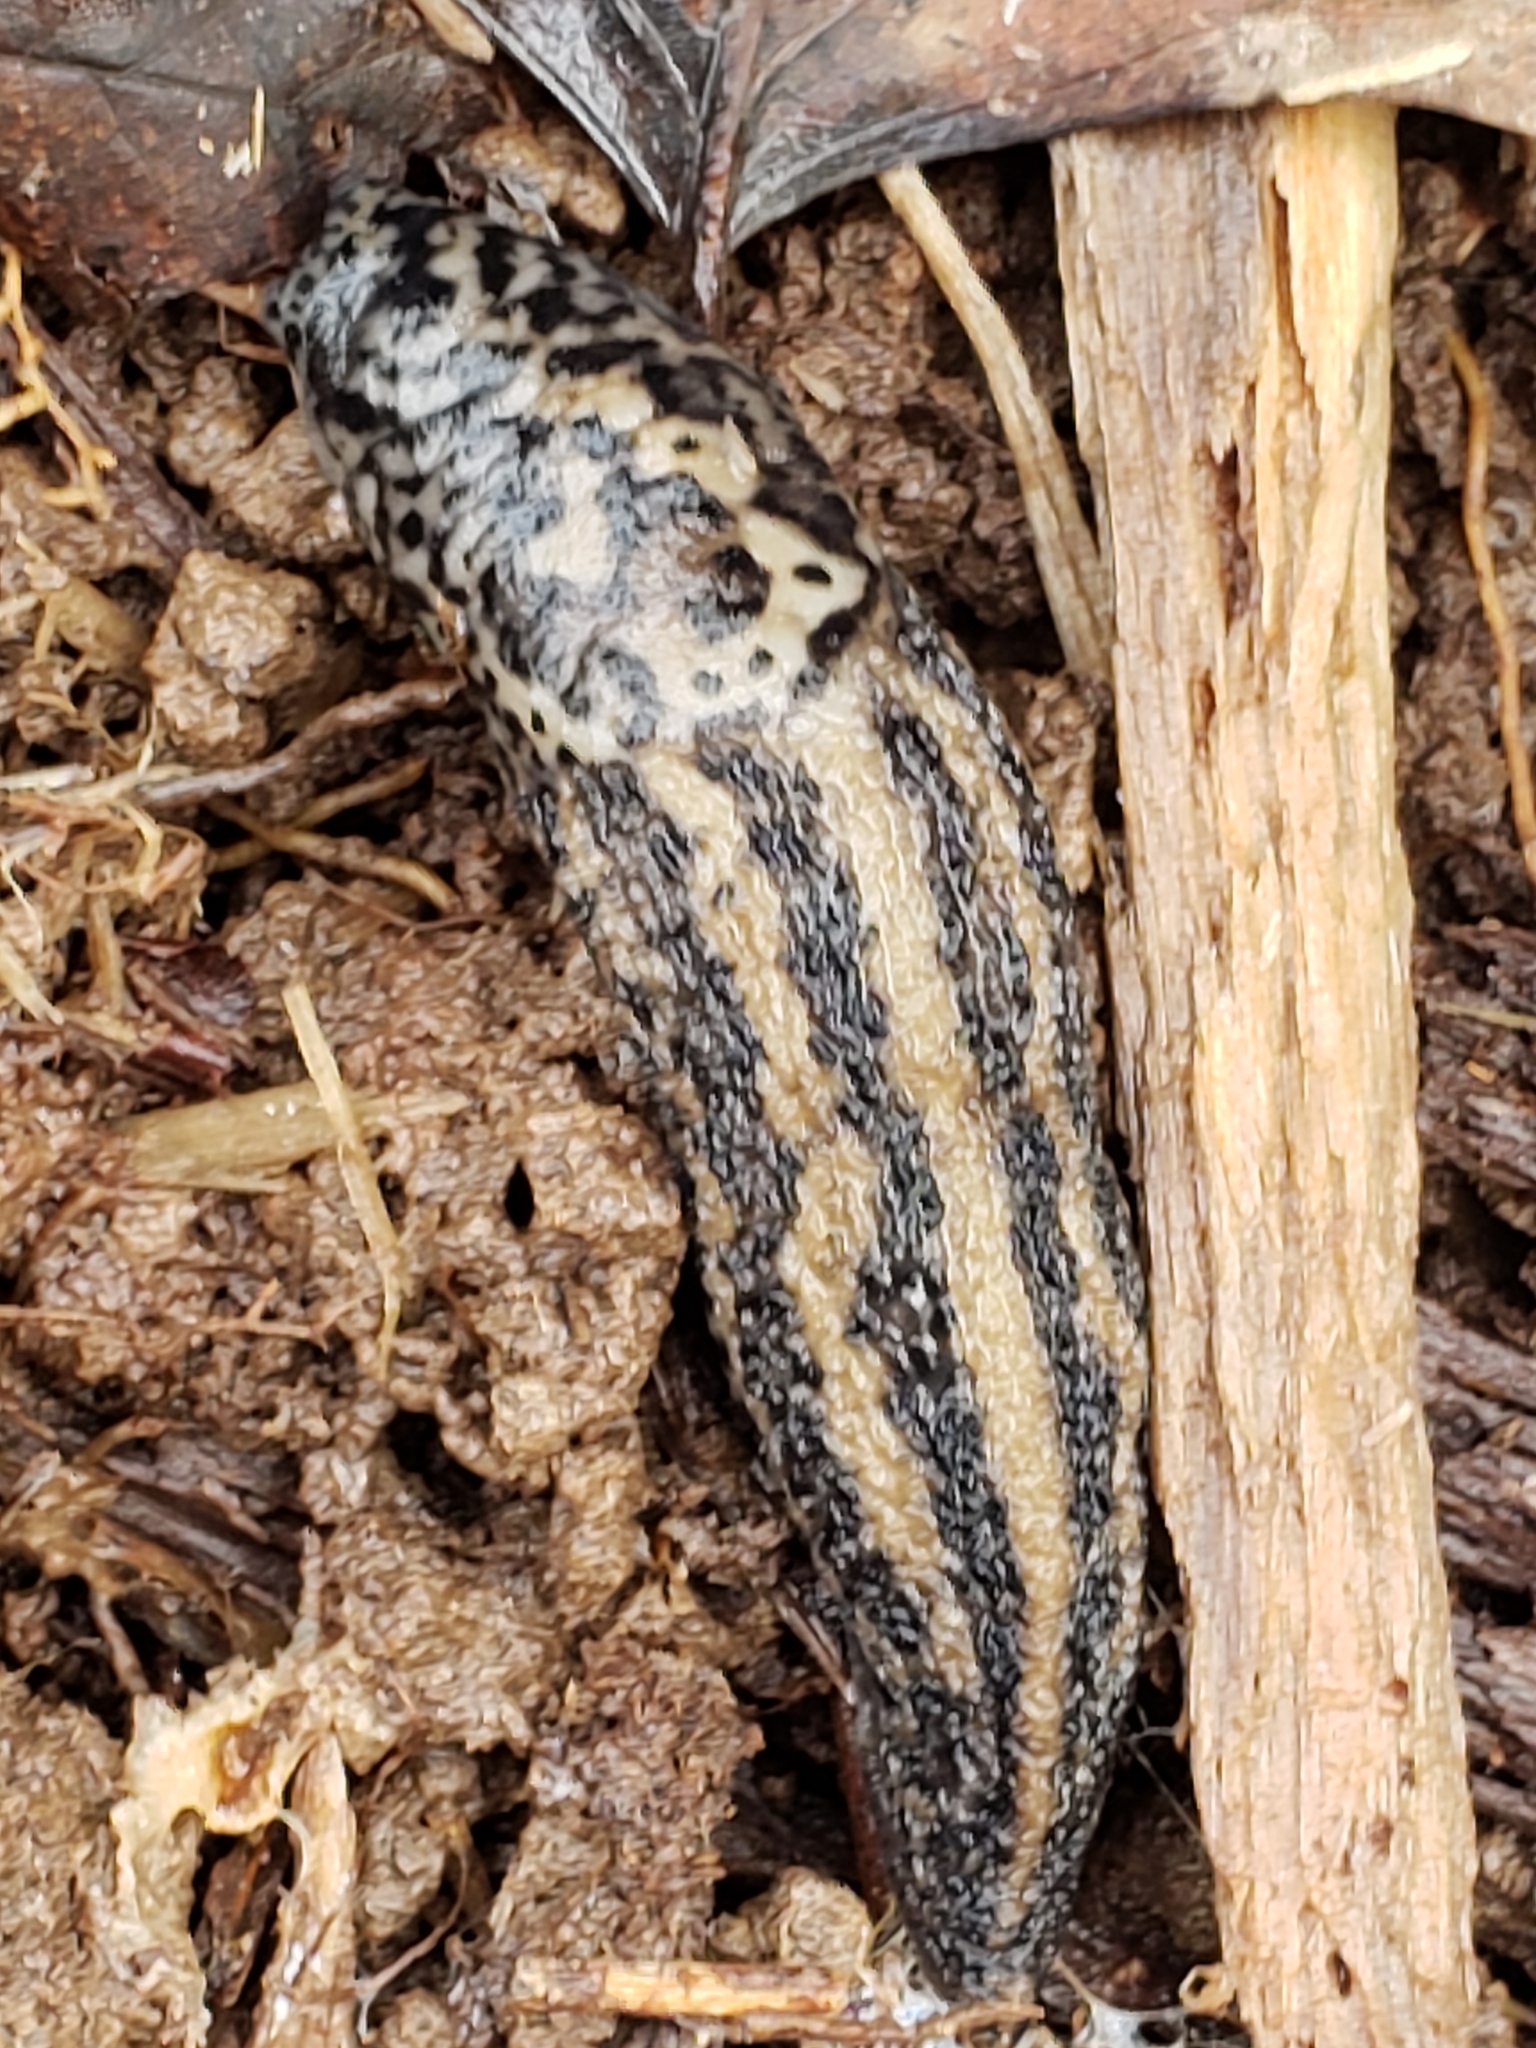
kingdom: Animalia
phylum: Mollusca
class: Gastropoda
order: Stylommatophora
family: Limacidae
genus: Limax
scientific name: Limax maximus
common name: Great grey slug
